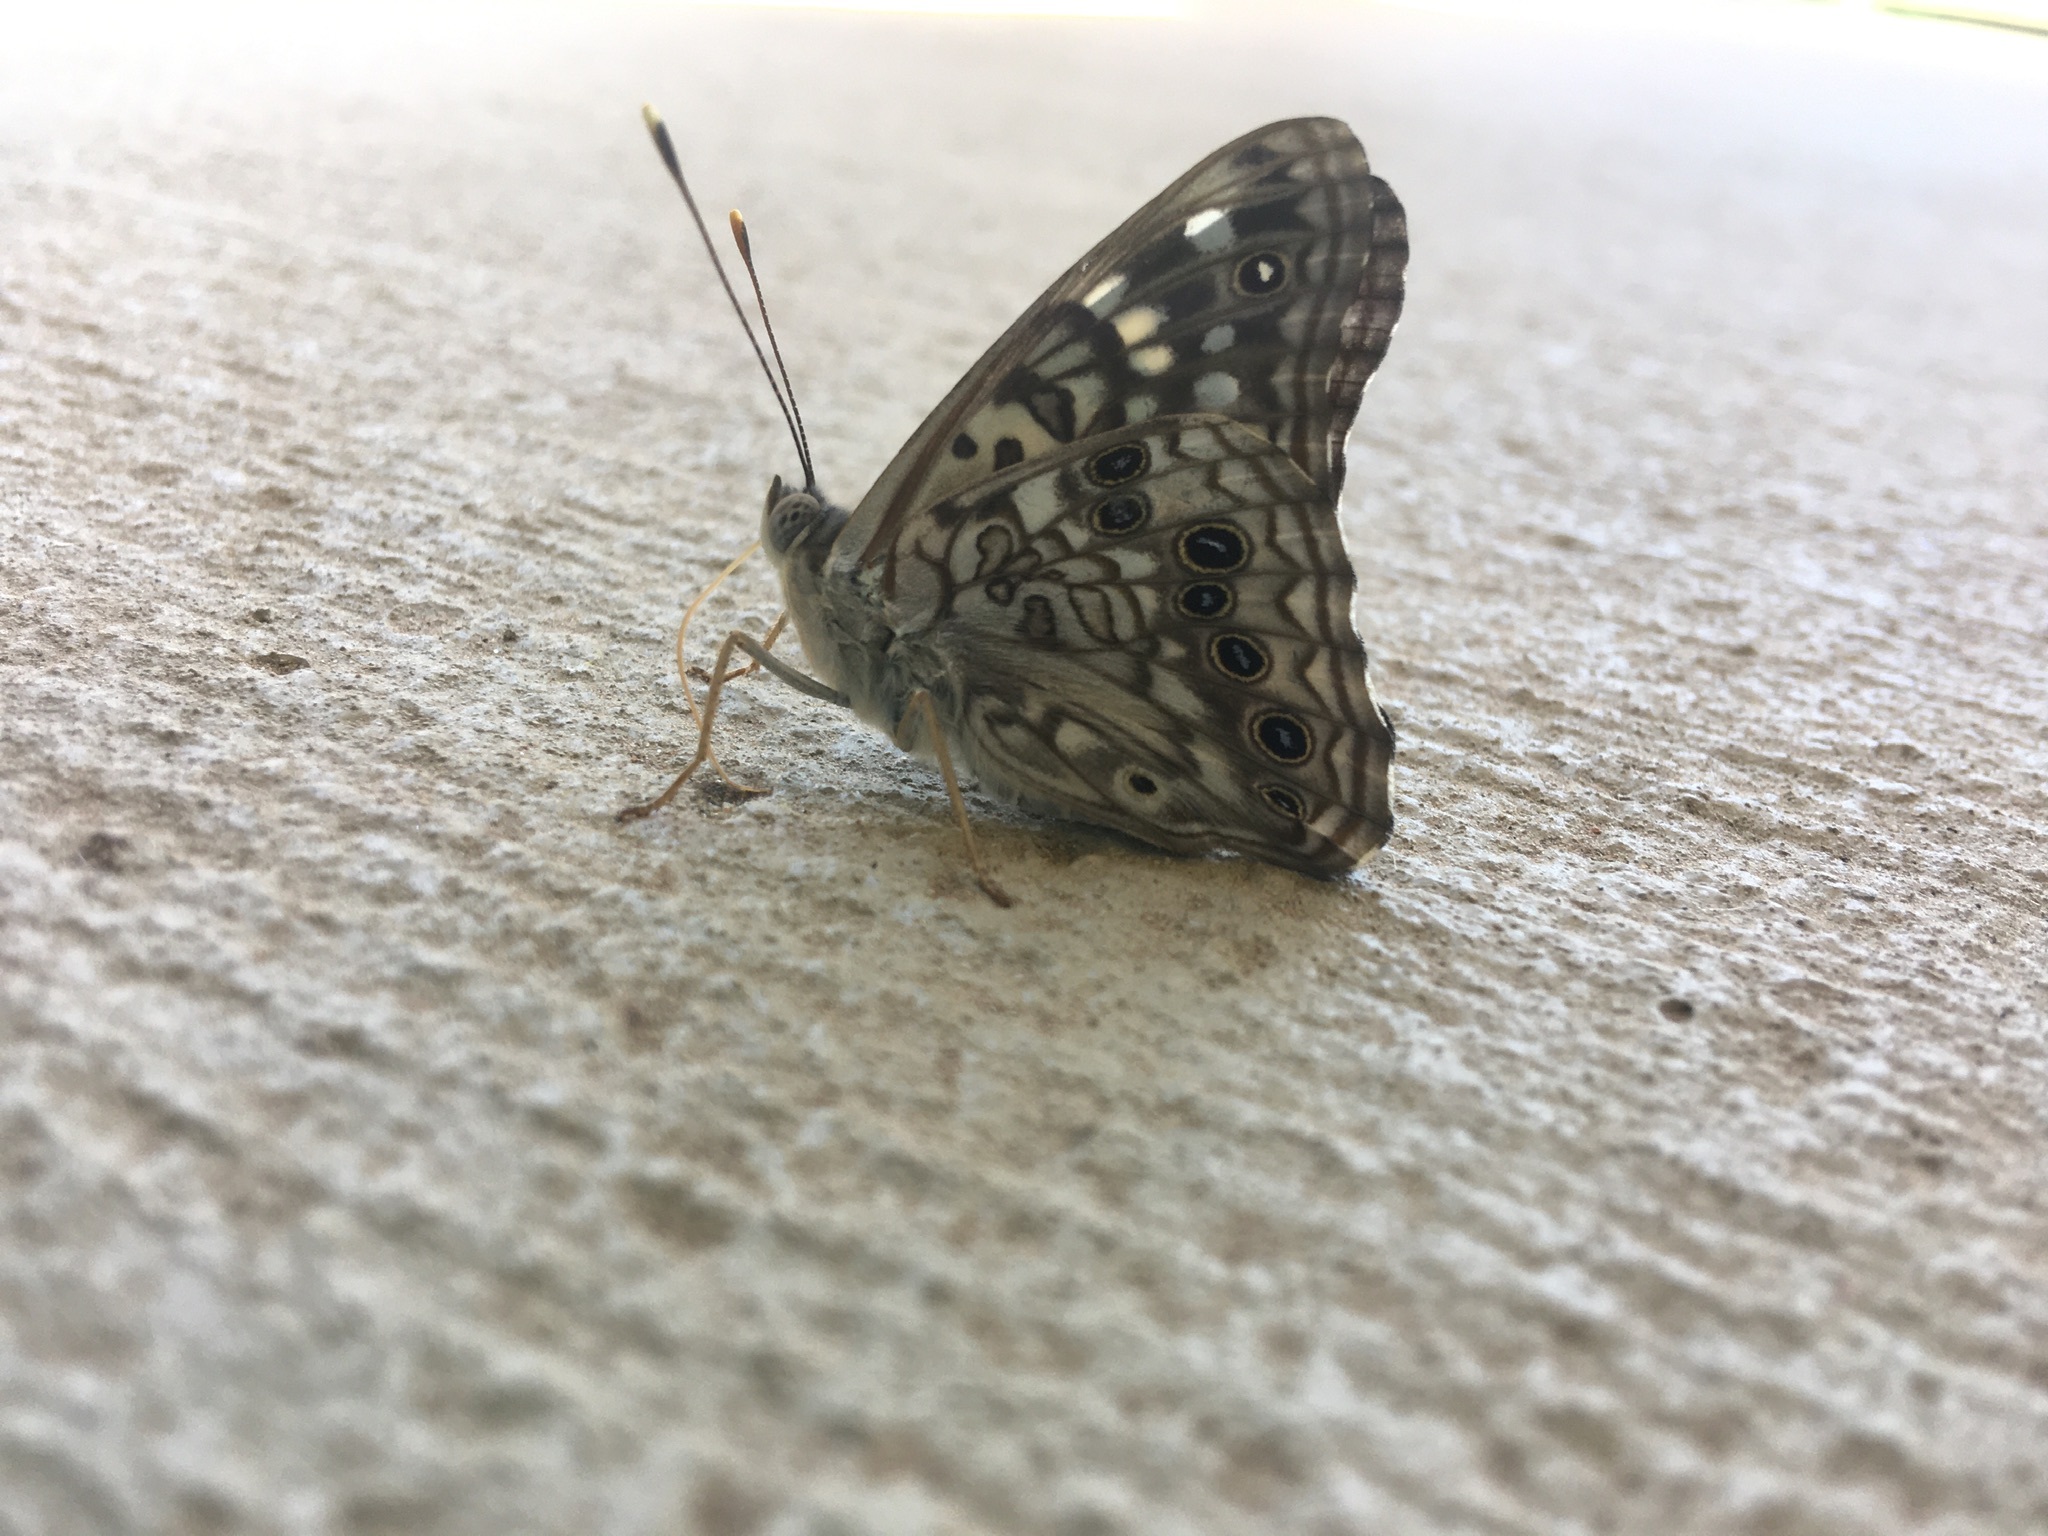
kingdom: Animalia
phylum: Arthropoda
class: Insecta
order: Lepidoptera
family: Nymphalidae
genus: Asterocampa
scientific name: Asterocampa celtis
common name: Hackberry emperor
